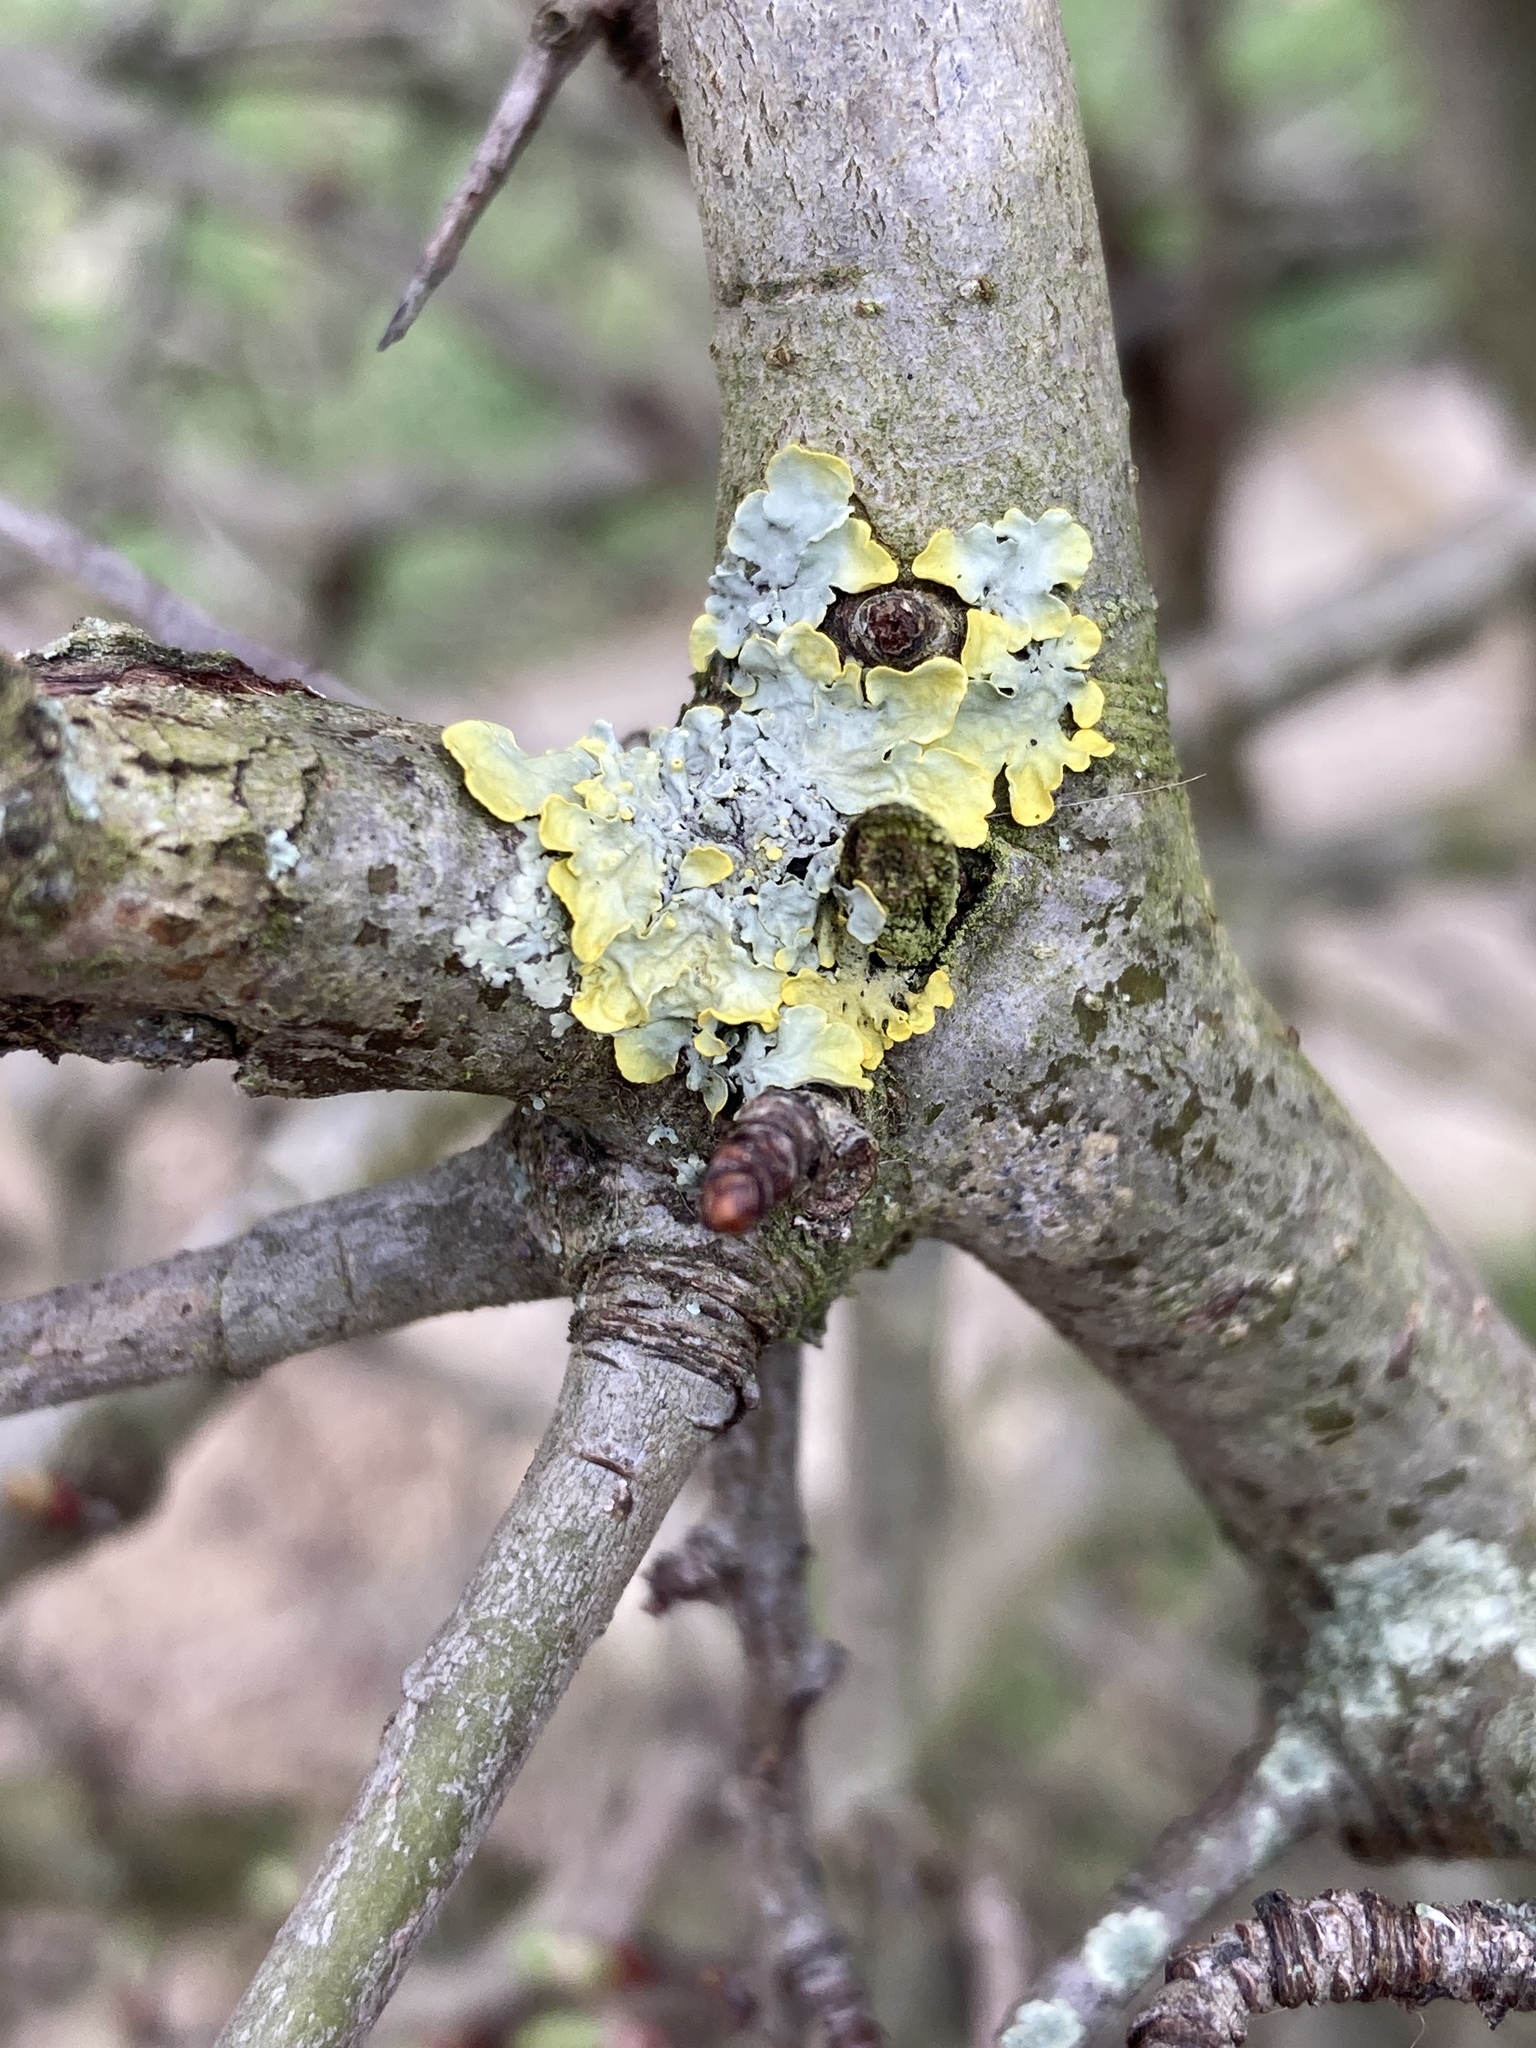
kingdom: Fungi
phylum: Ascomycota
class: Lecanoromycetes
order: Teloschistales
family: Teloschistaceae
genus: Xanthoria
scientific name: Xanthoria parietina
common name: Common orange lichen
